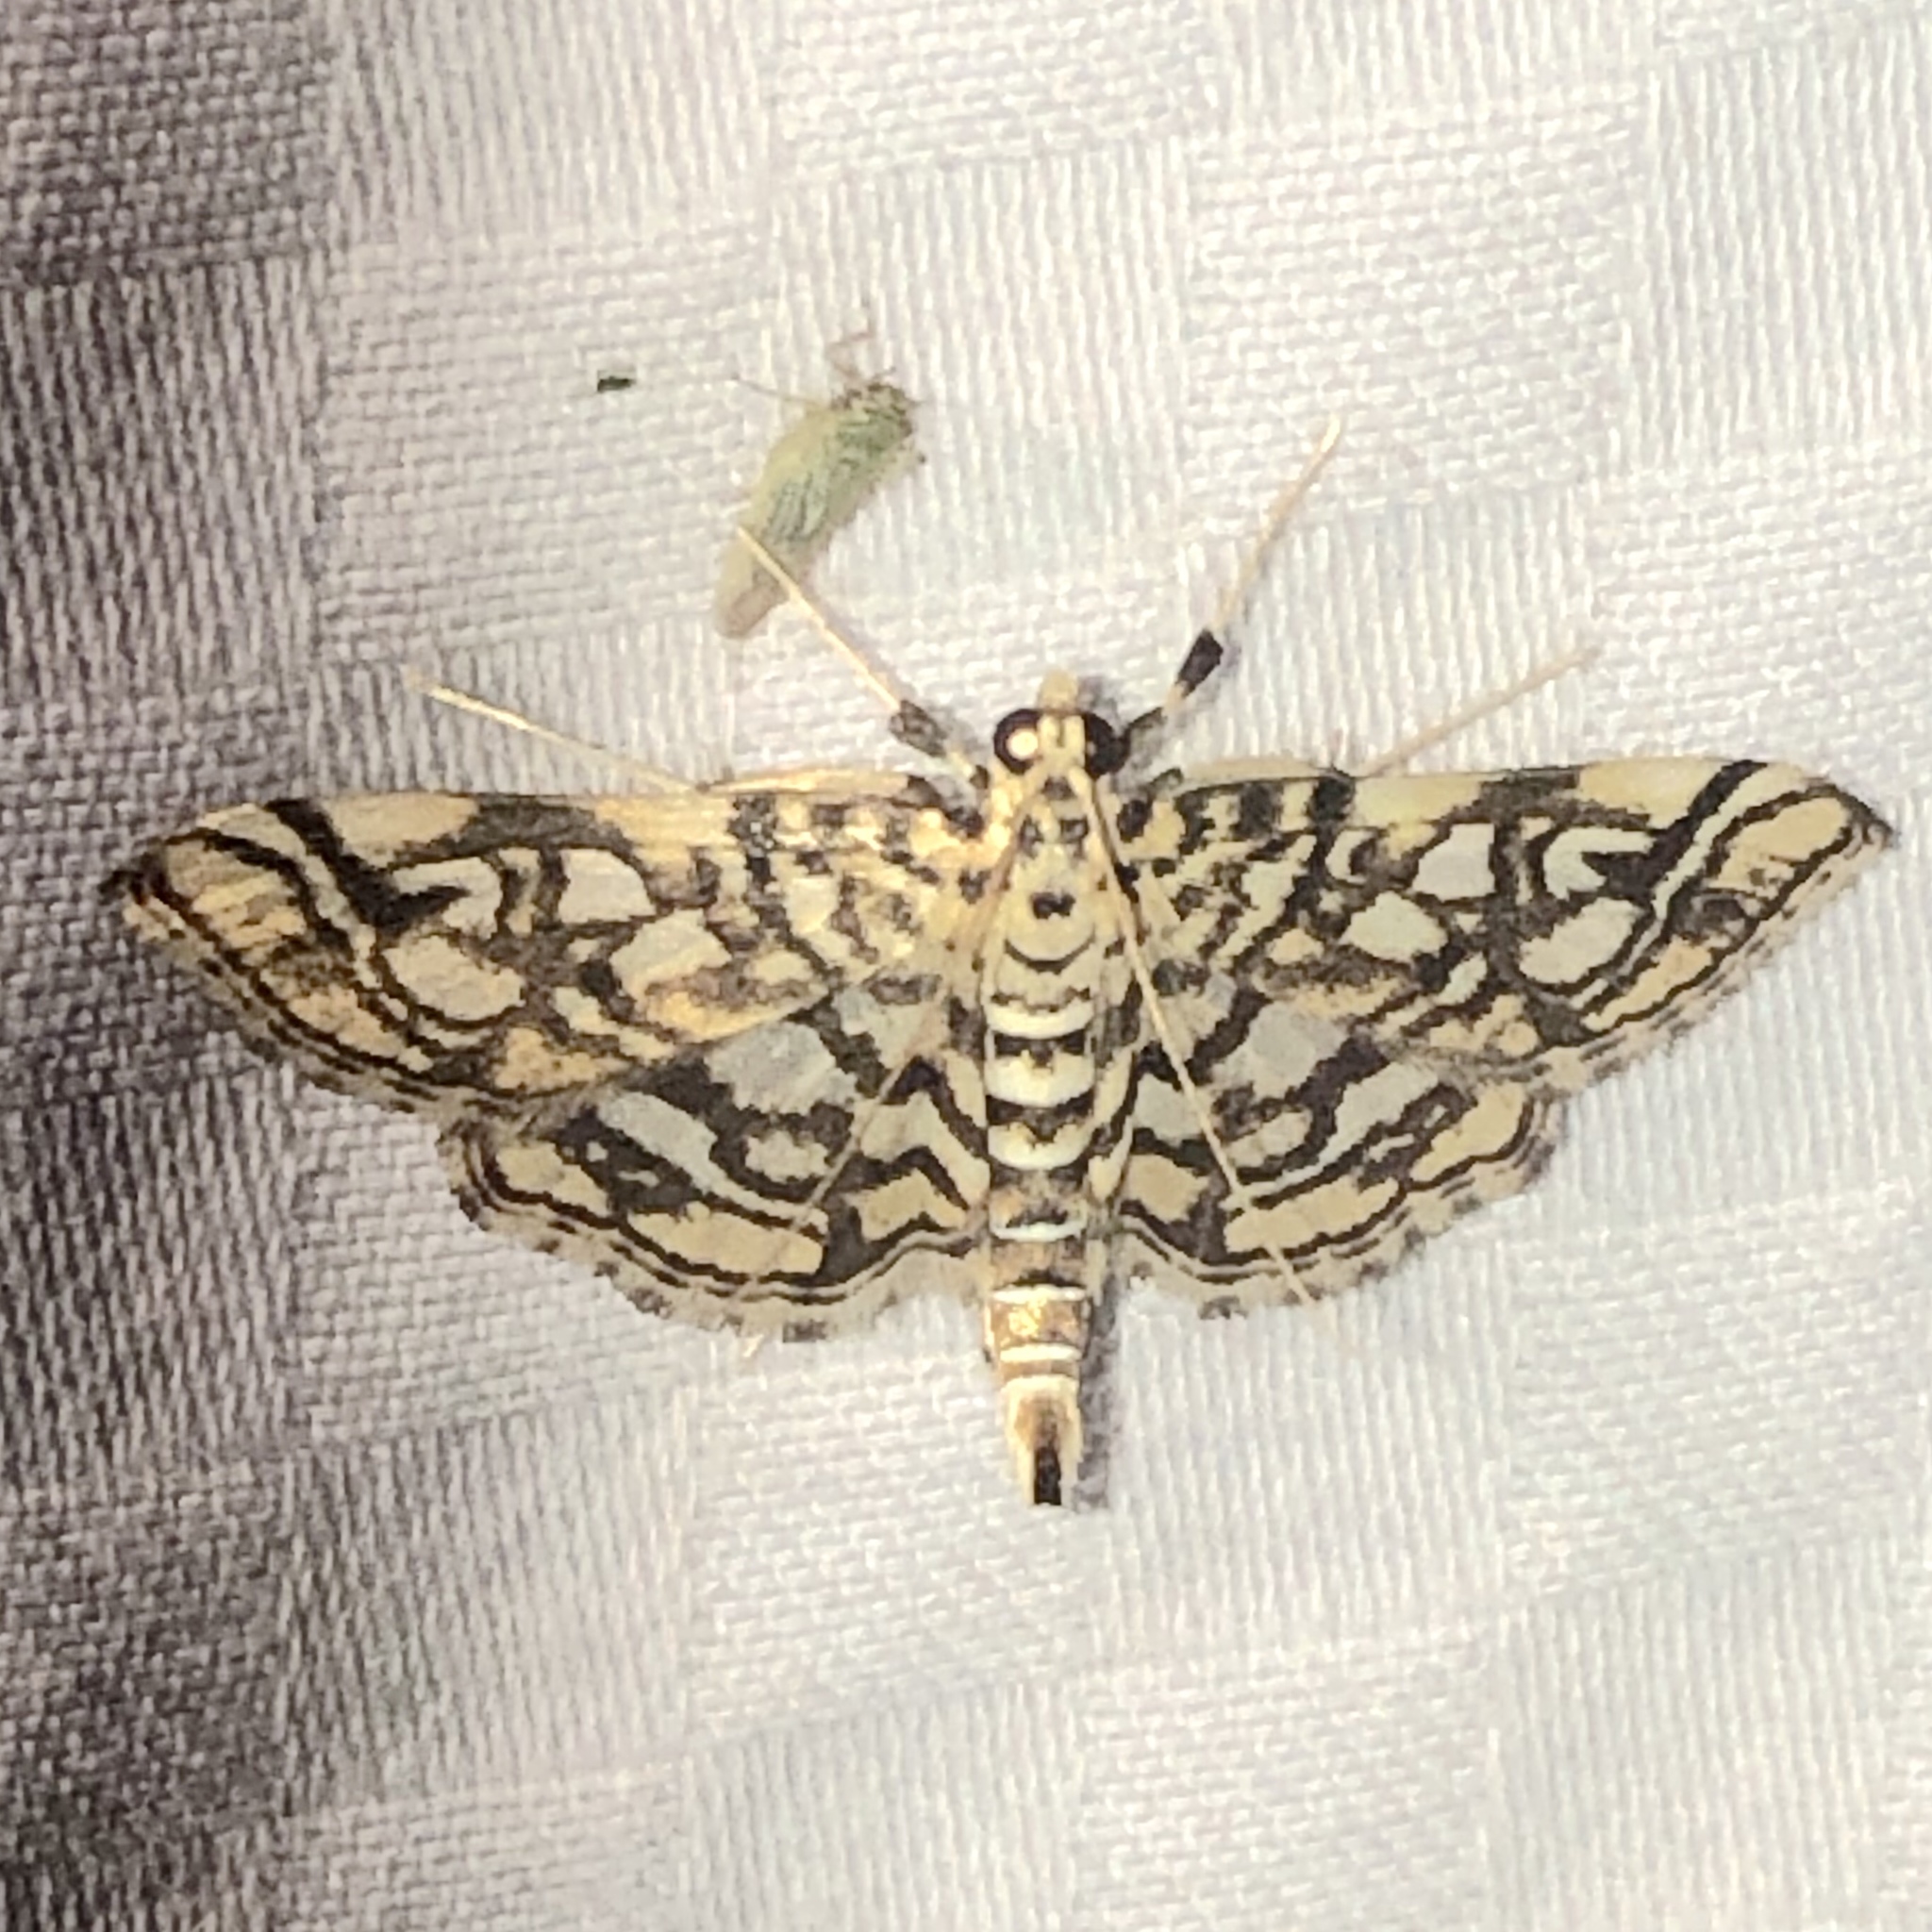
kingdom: Animalia
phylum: Arthropoda
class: Insecta
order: Lepidoptera
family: Crambidae
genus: Lygropia
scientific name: Lygropia rivulalis
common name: Bog lygropia moth
